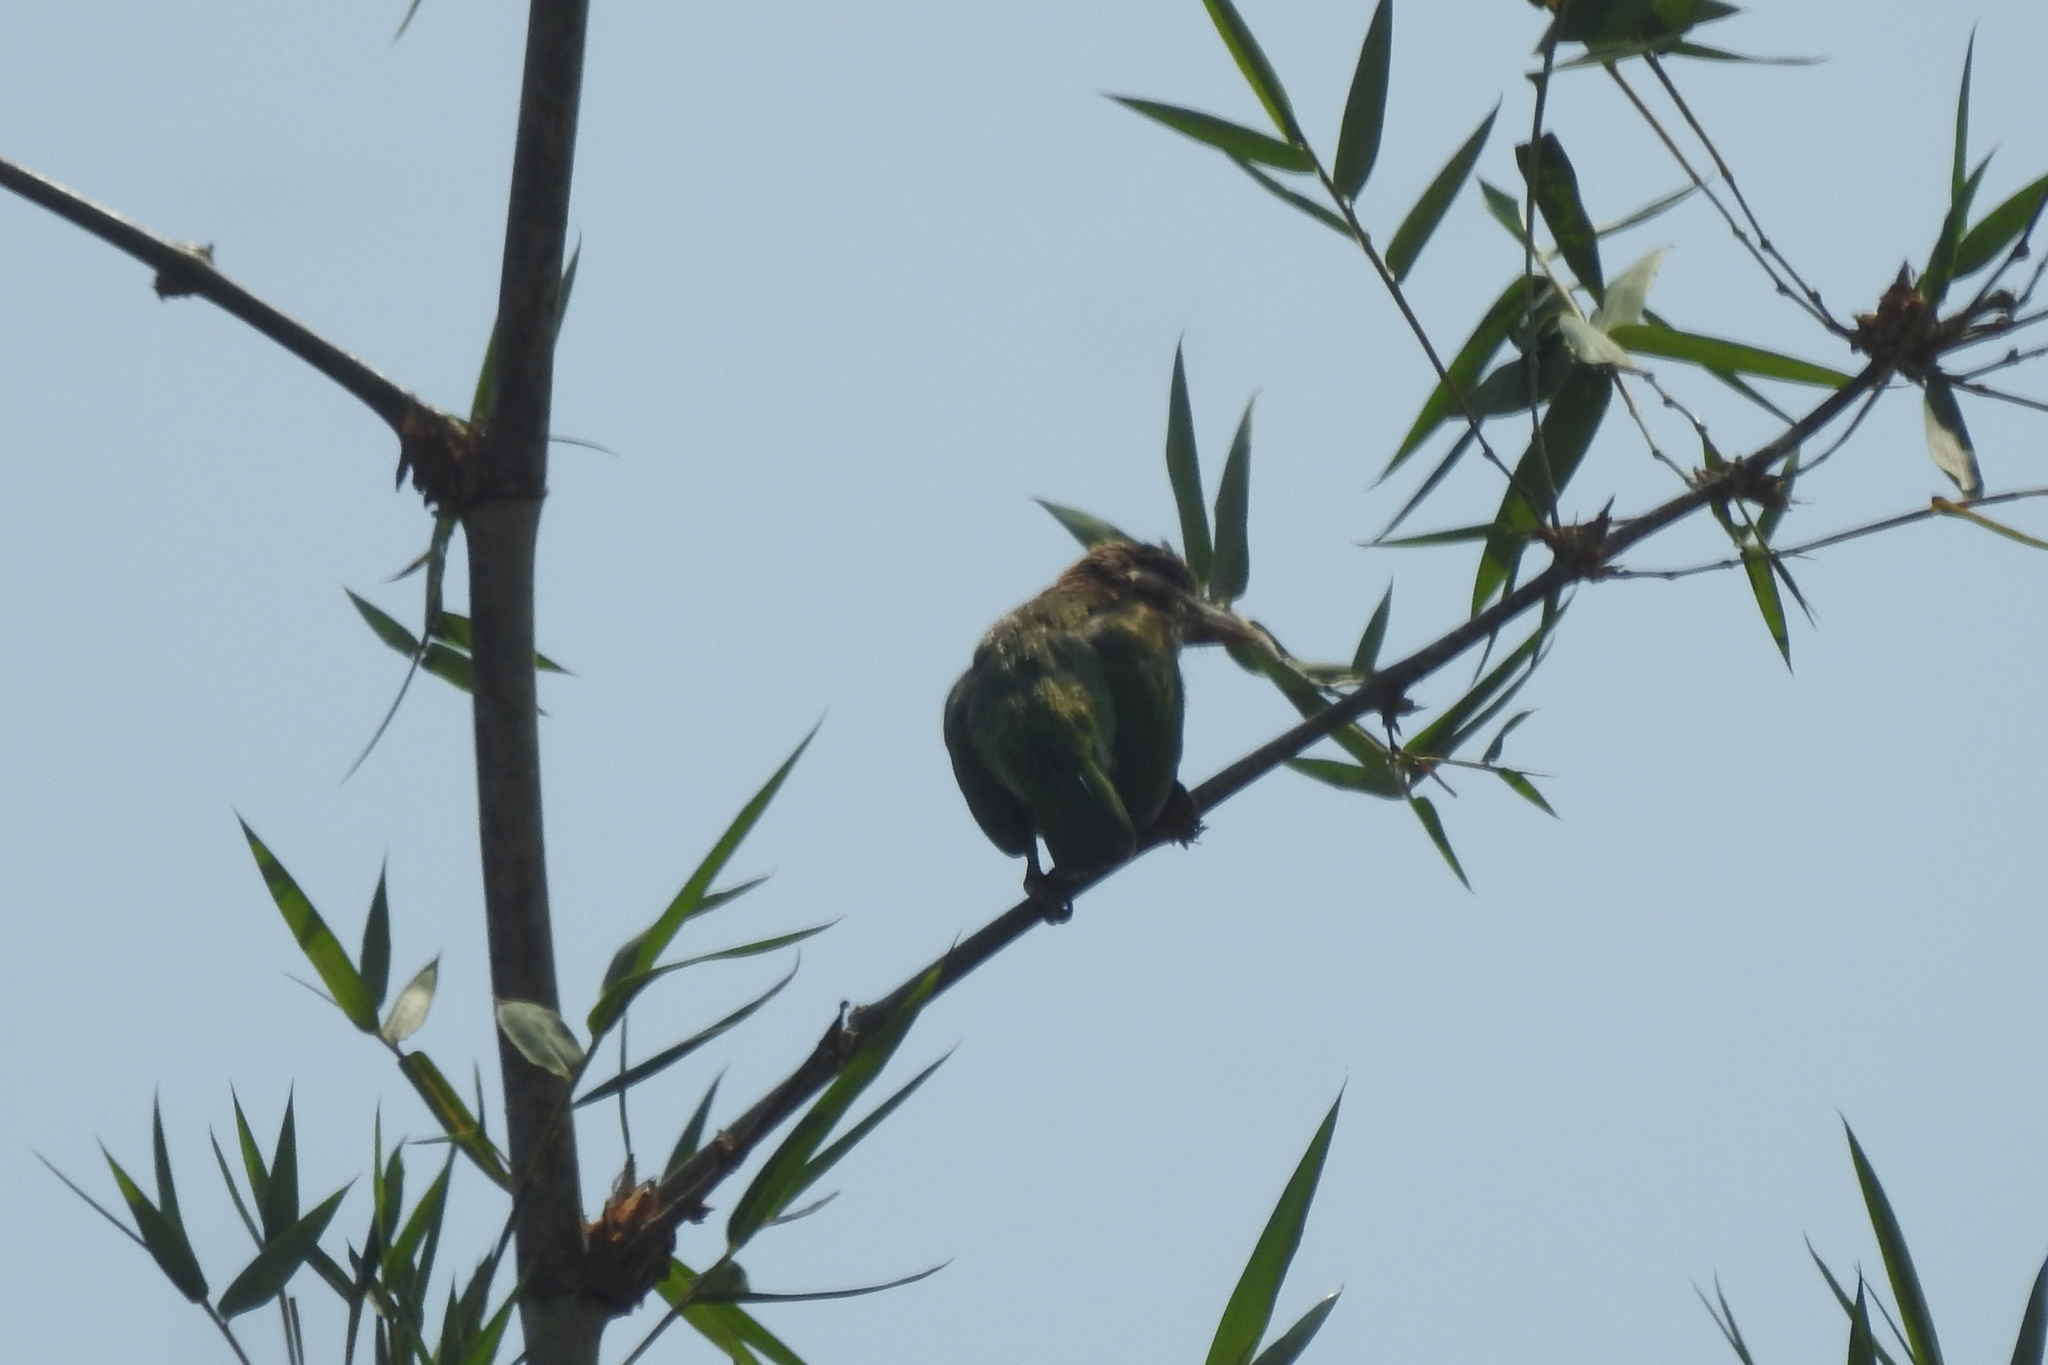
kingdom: Animalia
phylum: Chordata
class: Aves
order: Piciformes
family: Megalaimidae
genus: Psilopogon
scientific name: Psilopogon viridis
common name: White-cheeked barbet
